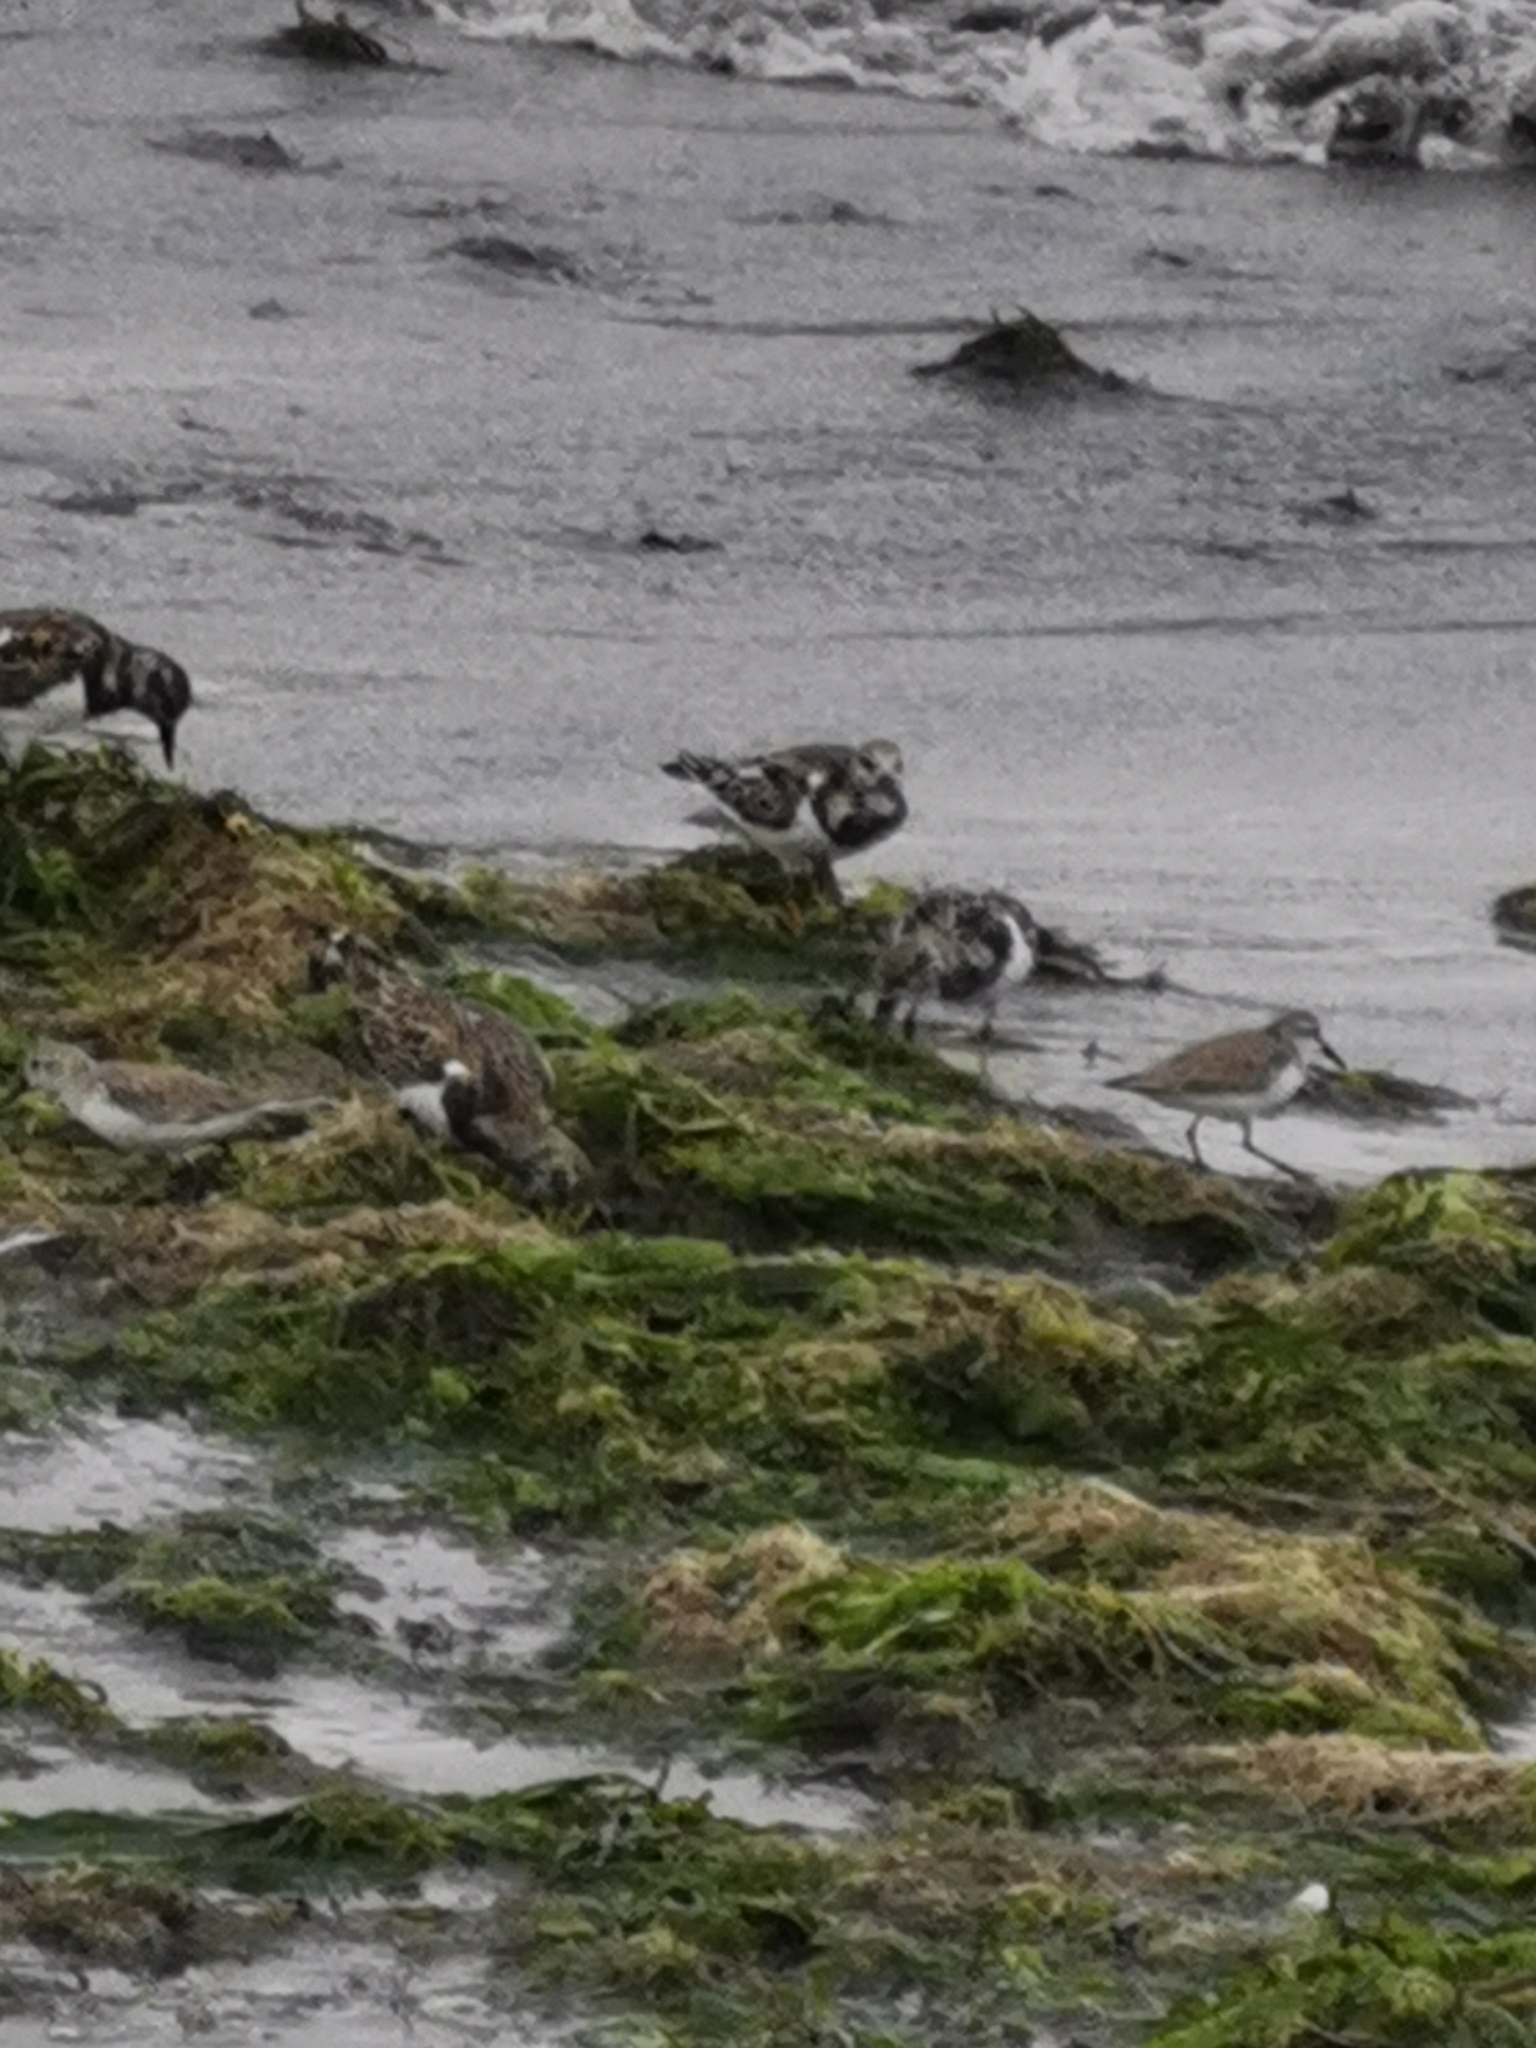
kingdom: Animalia
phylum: Chordata
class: Aves
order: Charadriiformes
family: Scolopacidae
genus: Arenaria
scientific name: Arenaria interpres
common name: Ruddy turnstone
